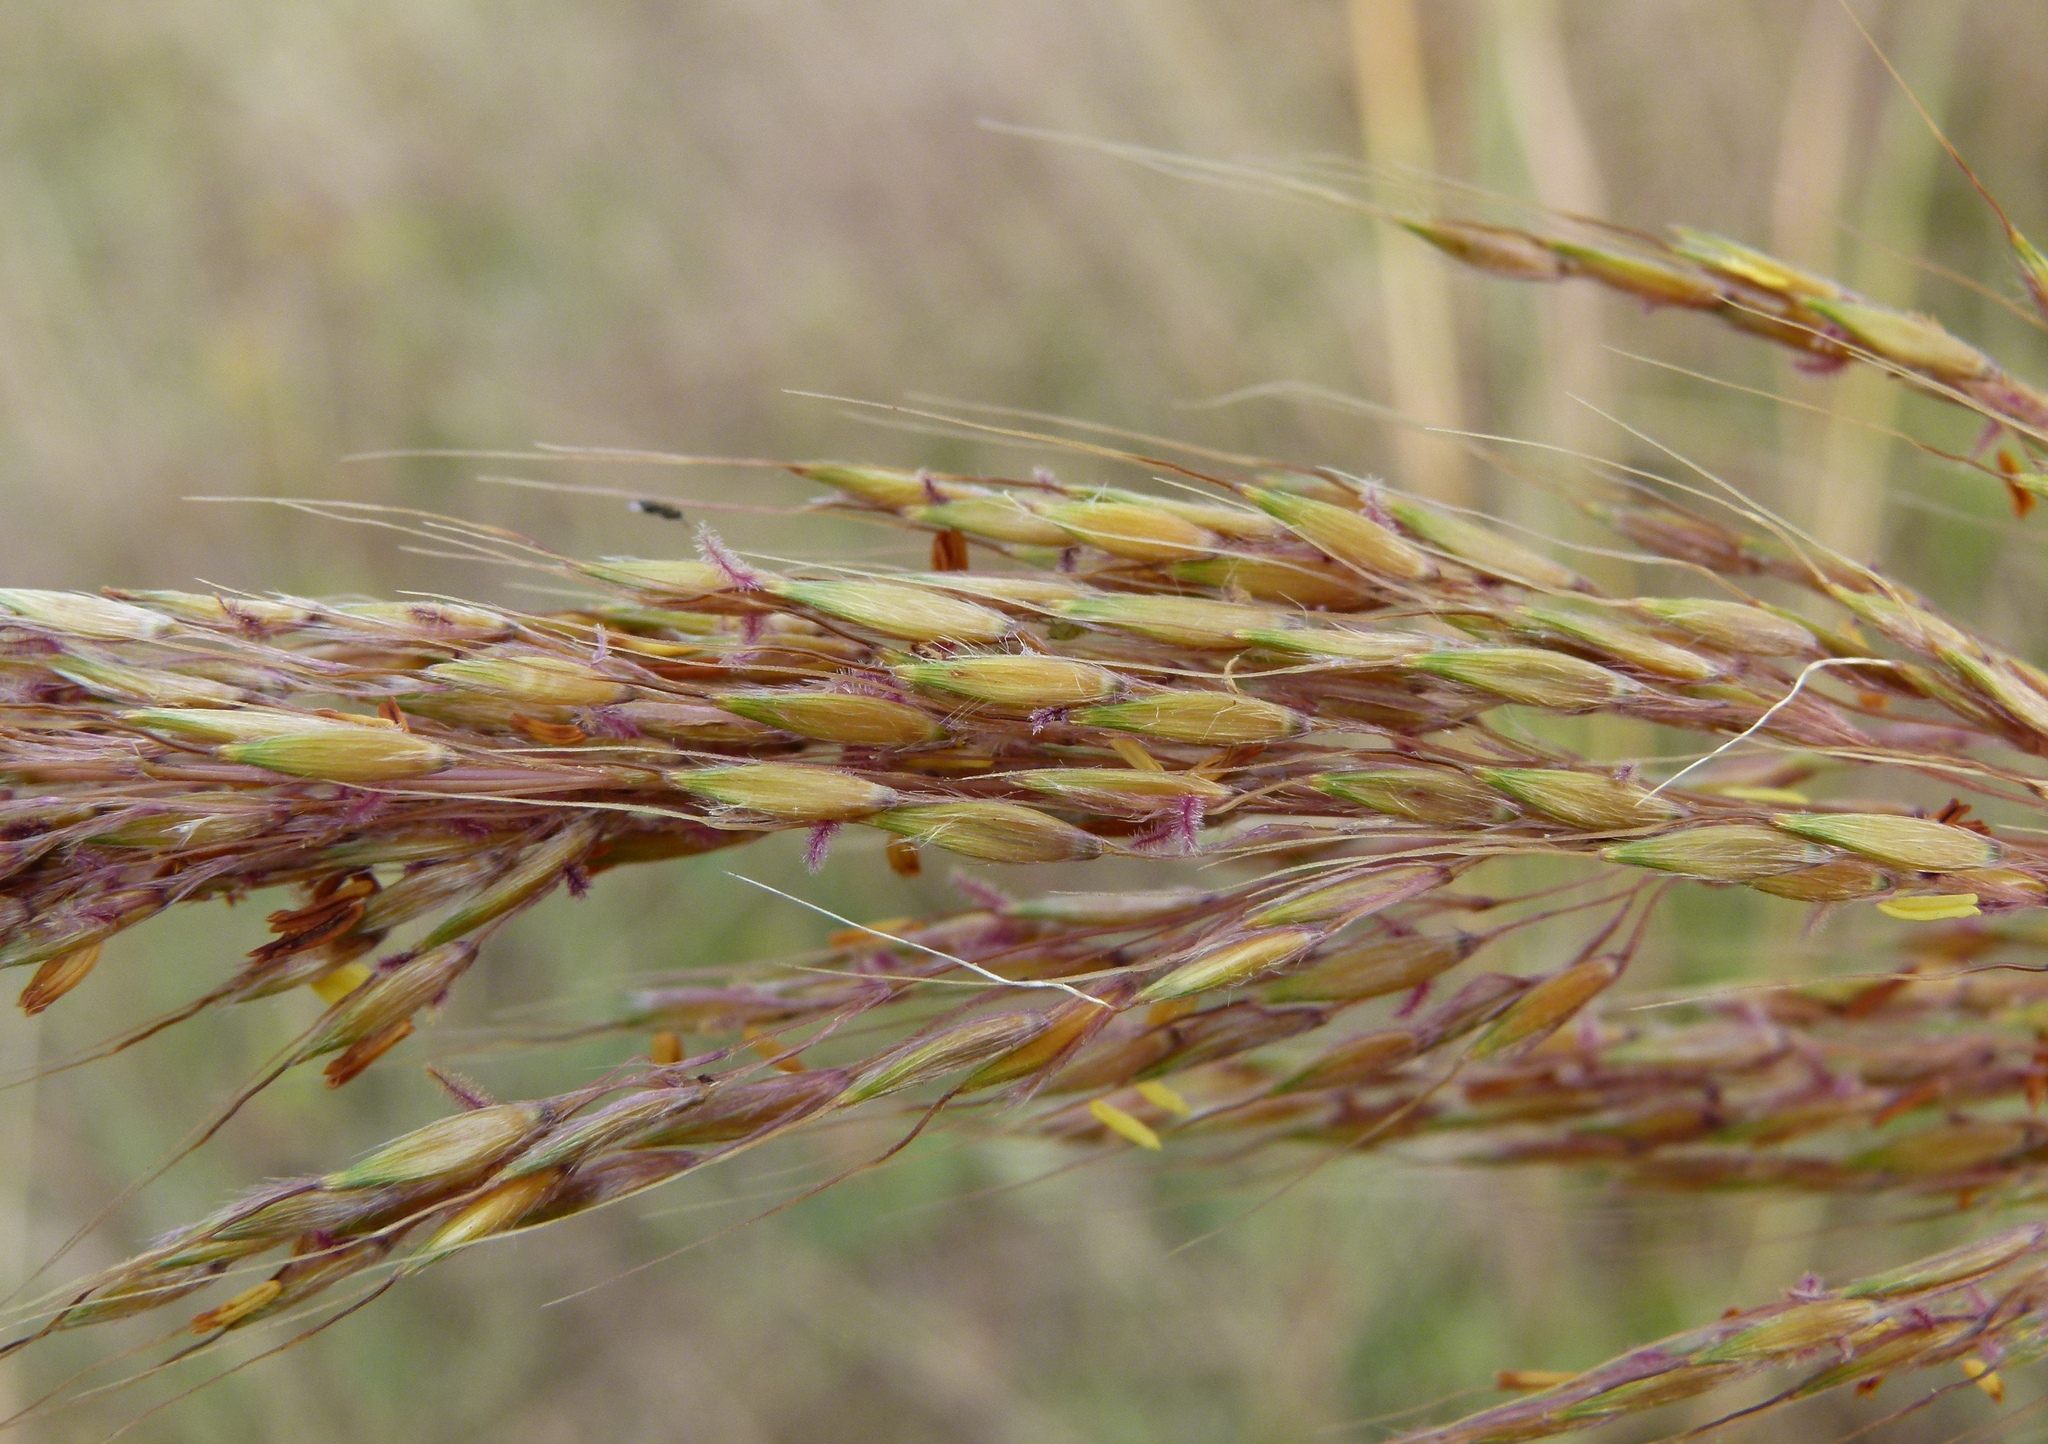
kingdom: Plantae
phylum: Tracheophyta
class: Liliopsida
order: Poales
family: Poaceae
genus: Sorghastrum
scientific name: Sorghastrum nutans
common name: Indian grass
